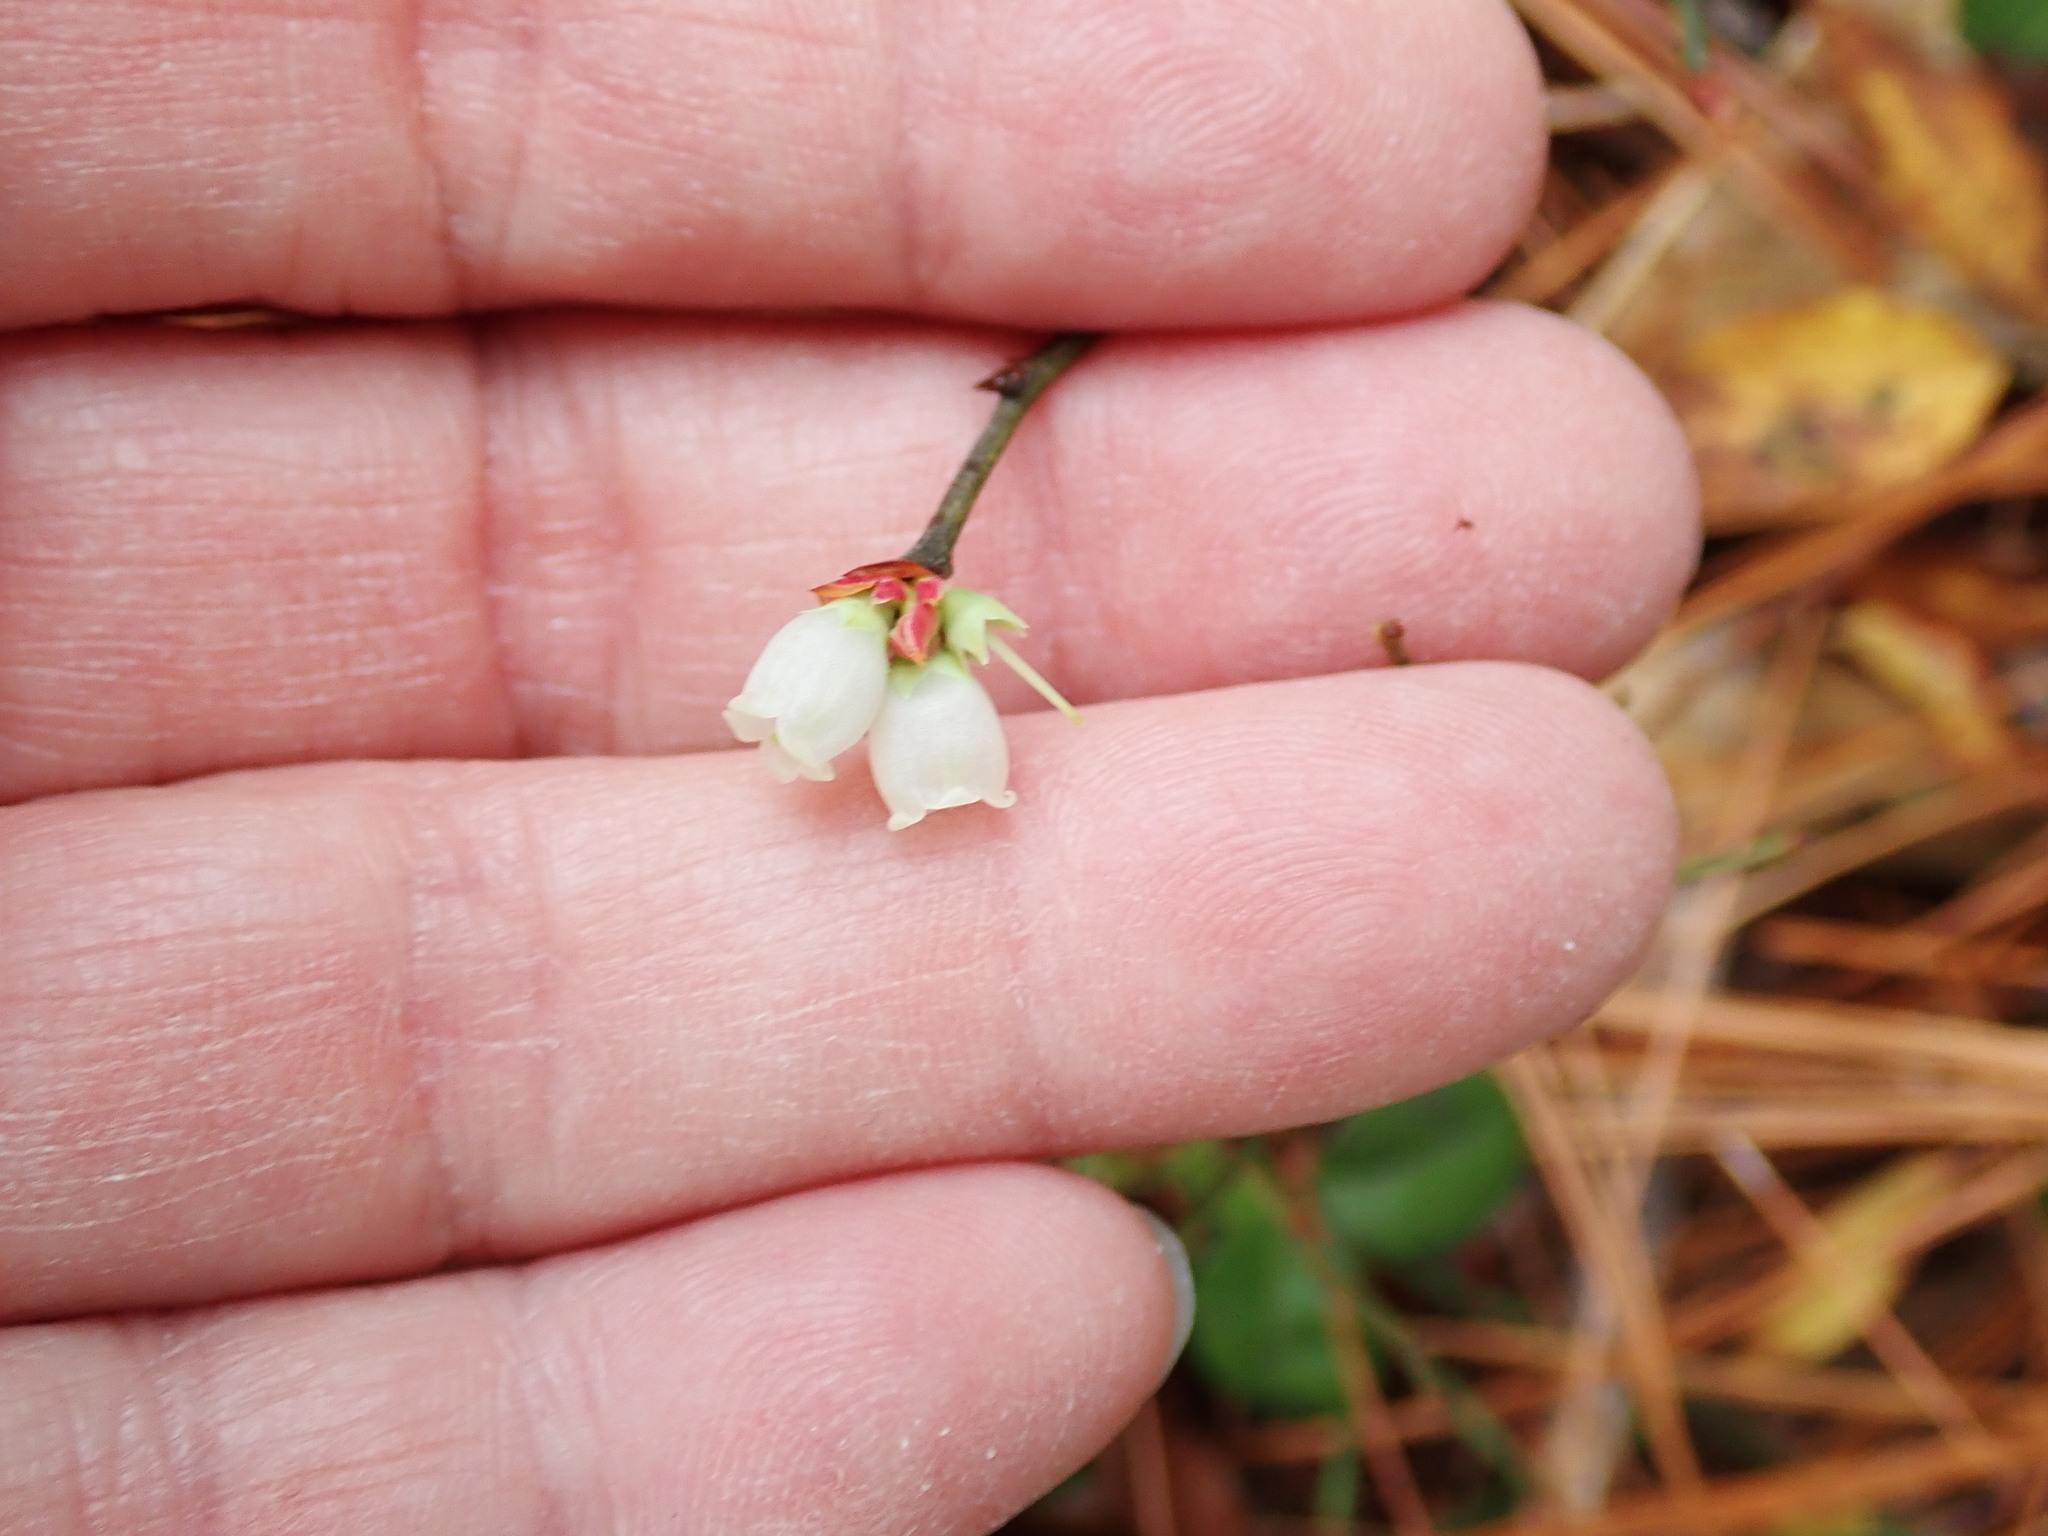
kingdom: Plantae
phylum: Tracheophyta
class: Magnoliopsida
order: Ericales
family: Ericaceae
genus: Vaccinium
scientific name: Vaccinium angustifolium
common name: Early lowbush blueberry
